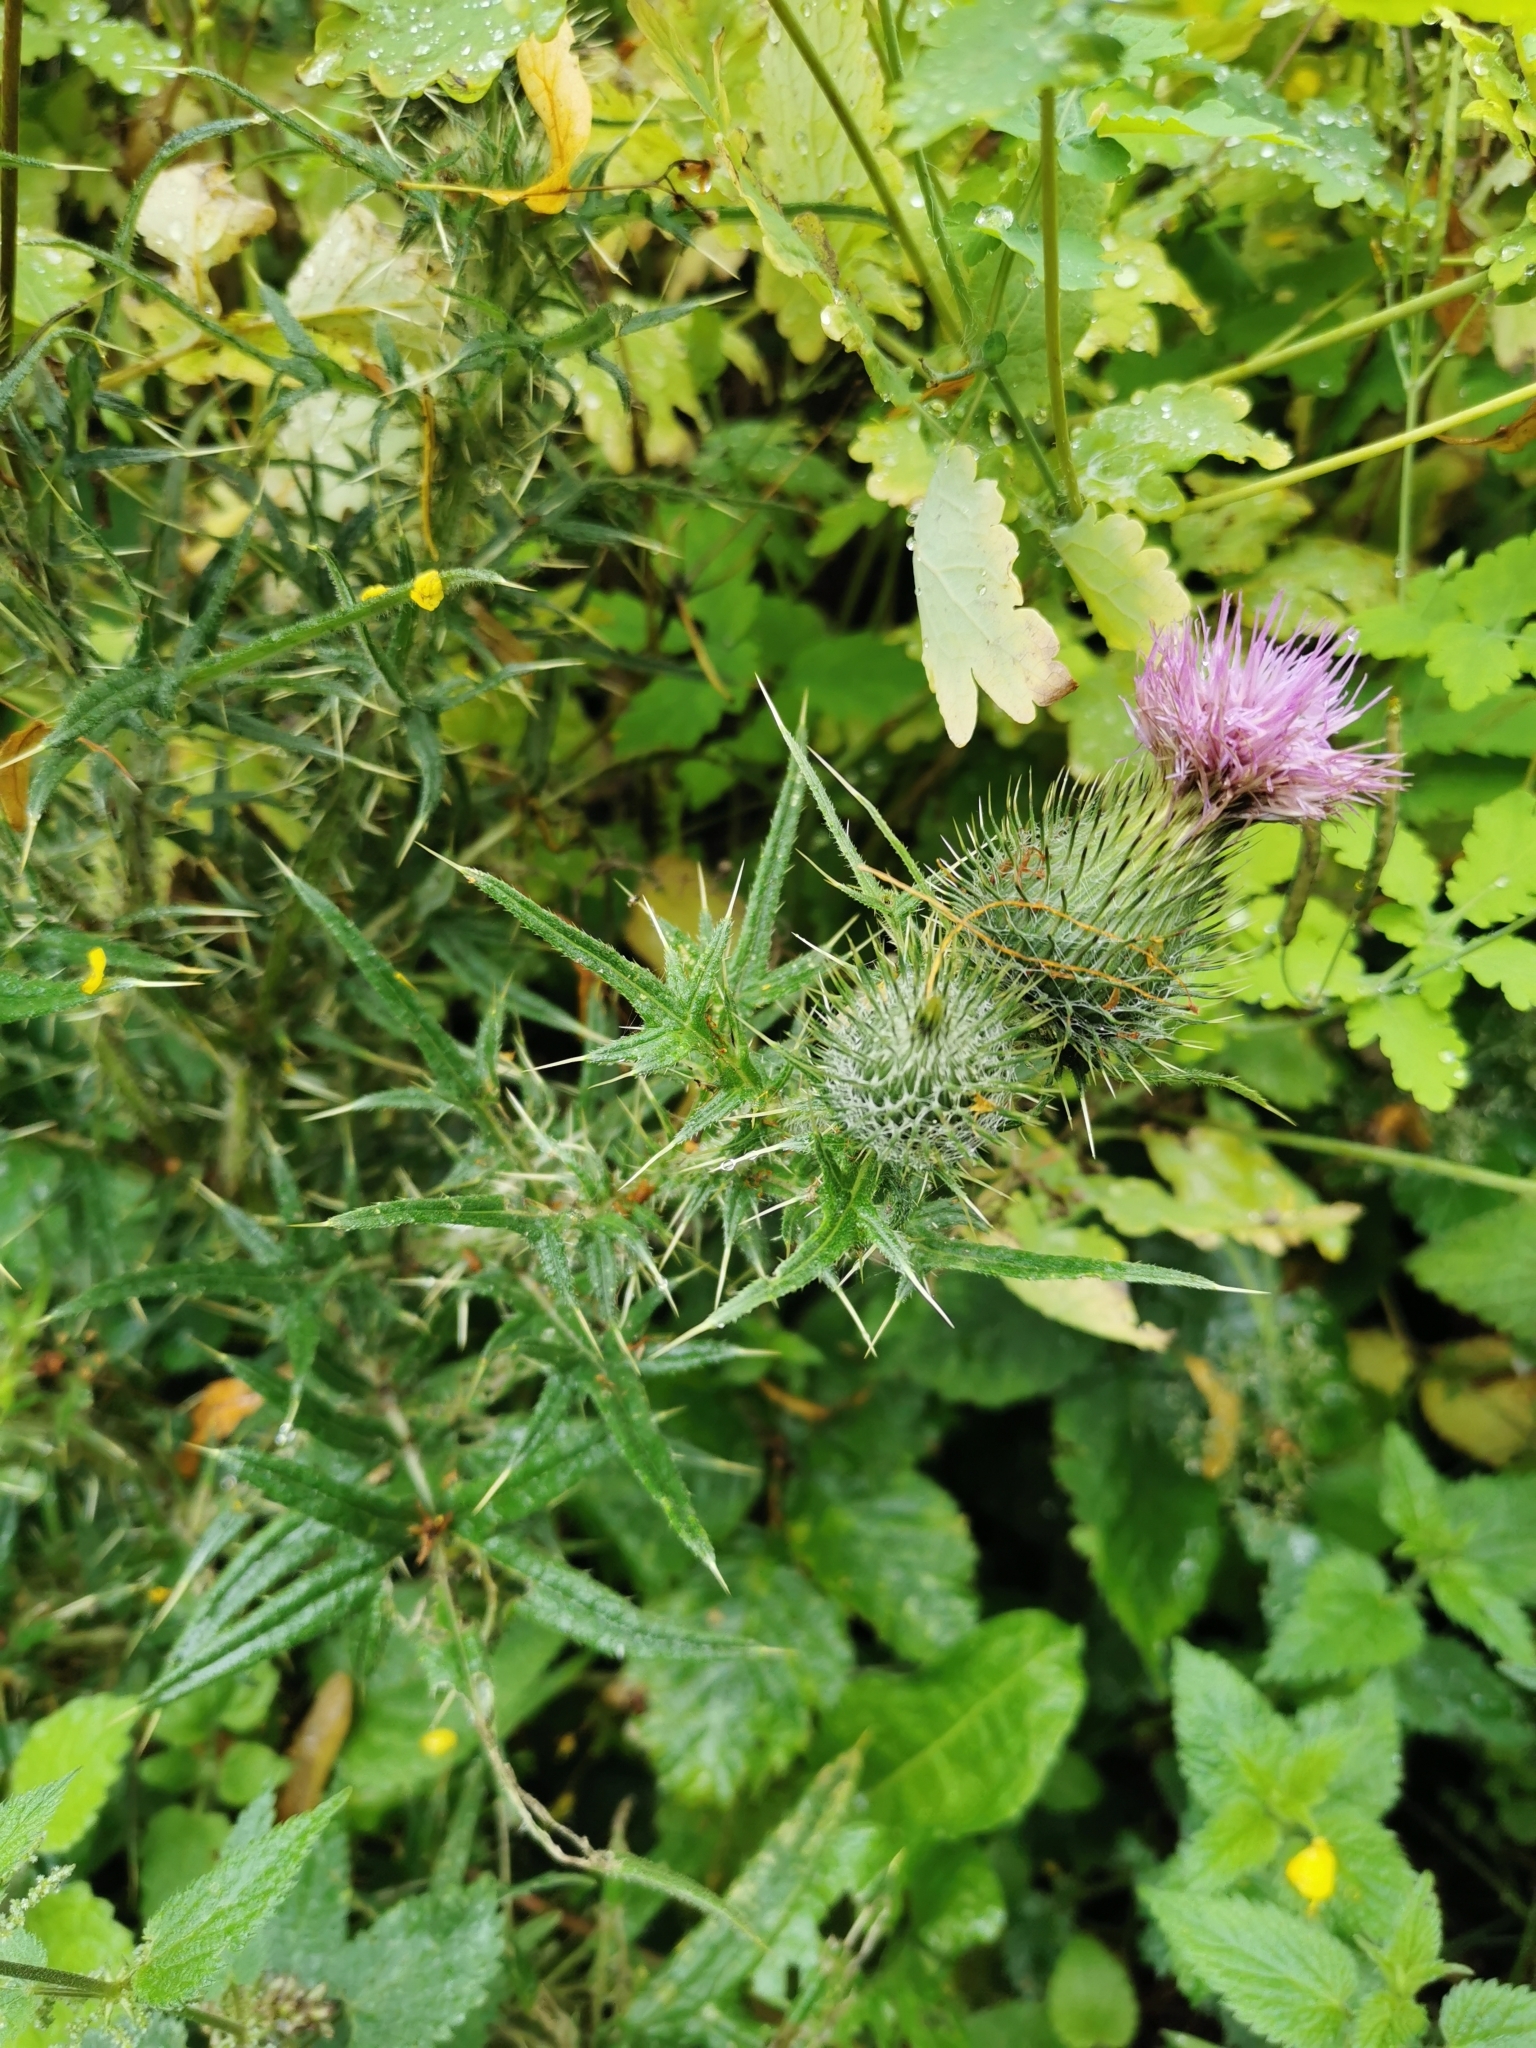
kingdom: Plantae
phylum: Tracheophyta
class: Magnoliopsida
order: Asterales
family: Asteraceae
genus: Cirsium
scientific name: Cirsium vulgare
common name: Bull thistle
